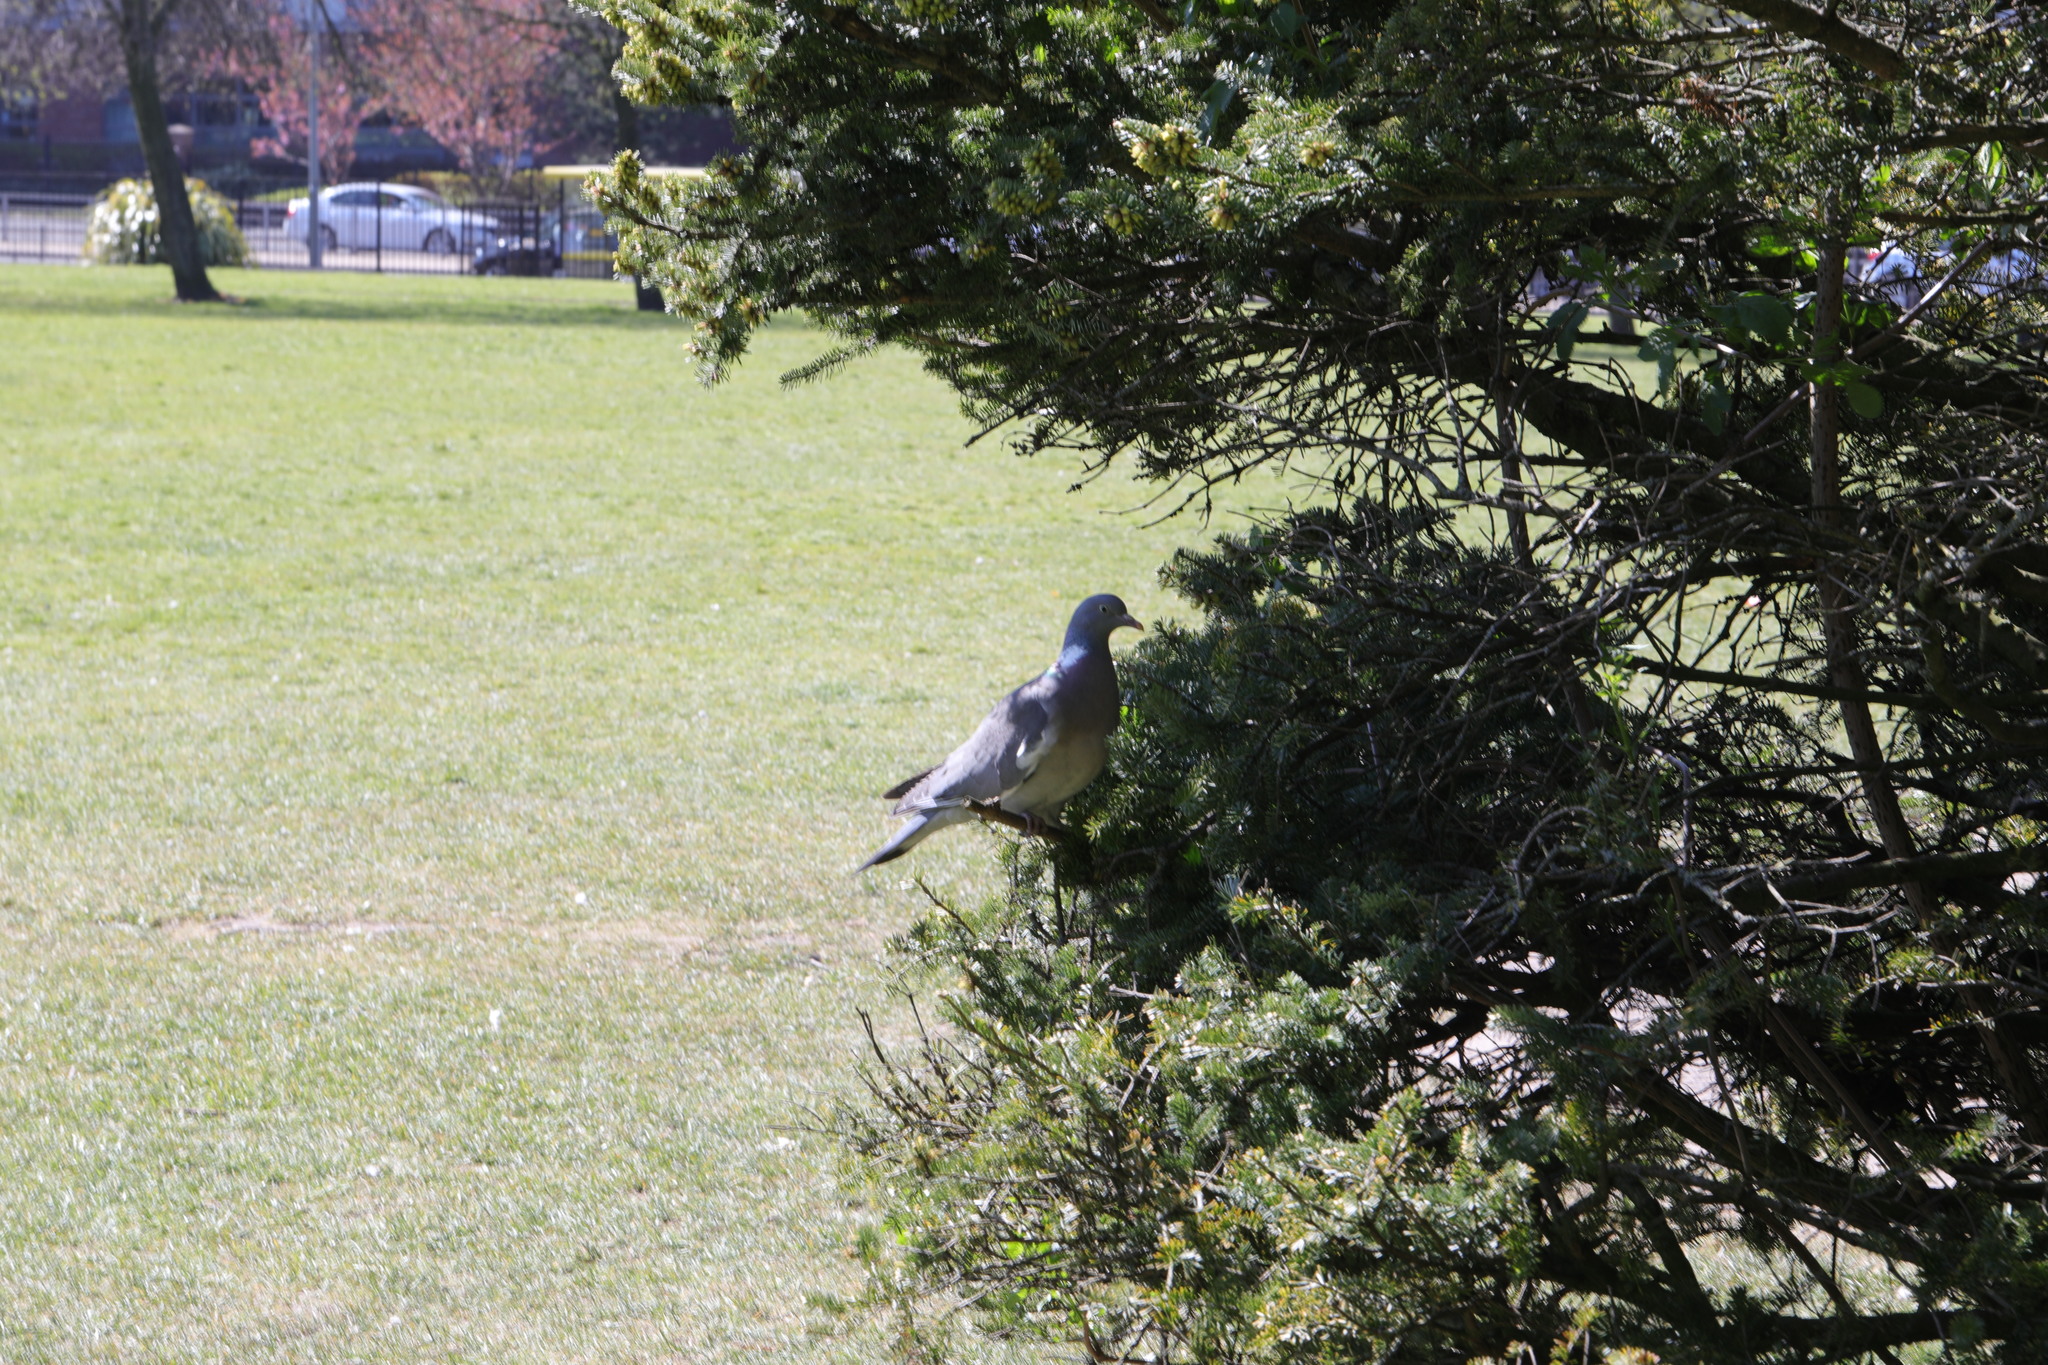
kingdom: Animalia
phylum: Chordata
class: Aves
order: Columbiformes
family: Columbidae
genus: Columba
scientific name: Columba palumbus
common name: Common wood pigeon
